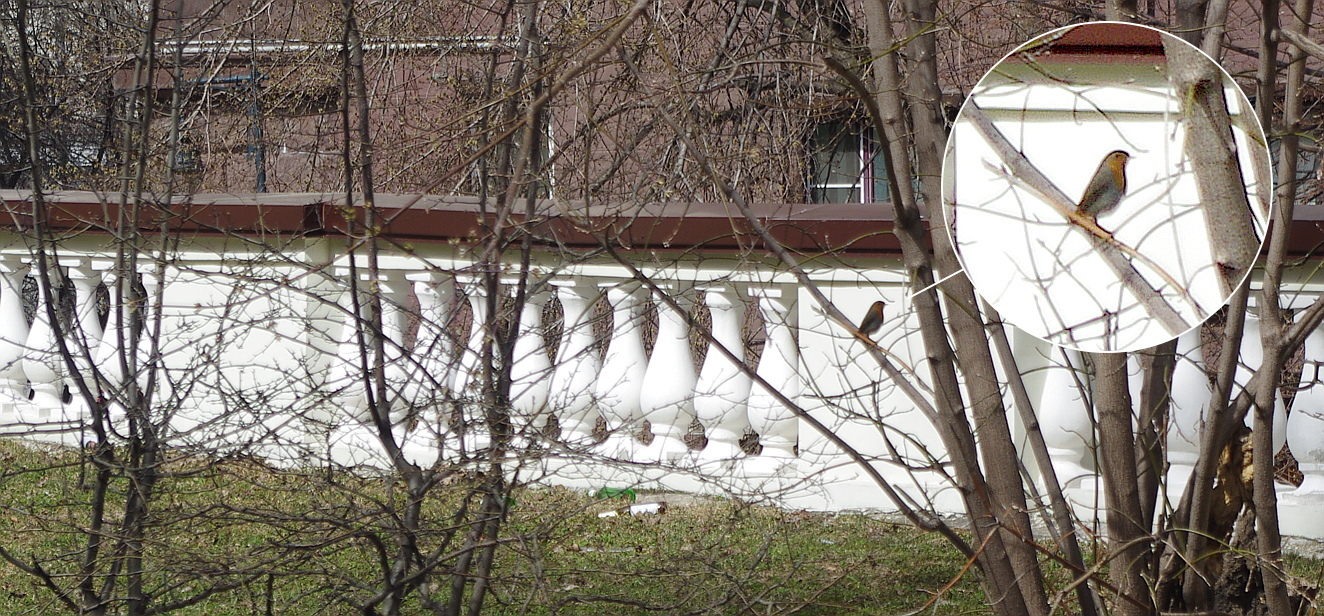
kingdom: Animalia
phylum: Chordata
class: Aves
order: Passeriformes
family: Muscicapidae
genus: Erithacus
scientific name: Erithacus rubecula
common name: European robin
